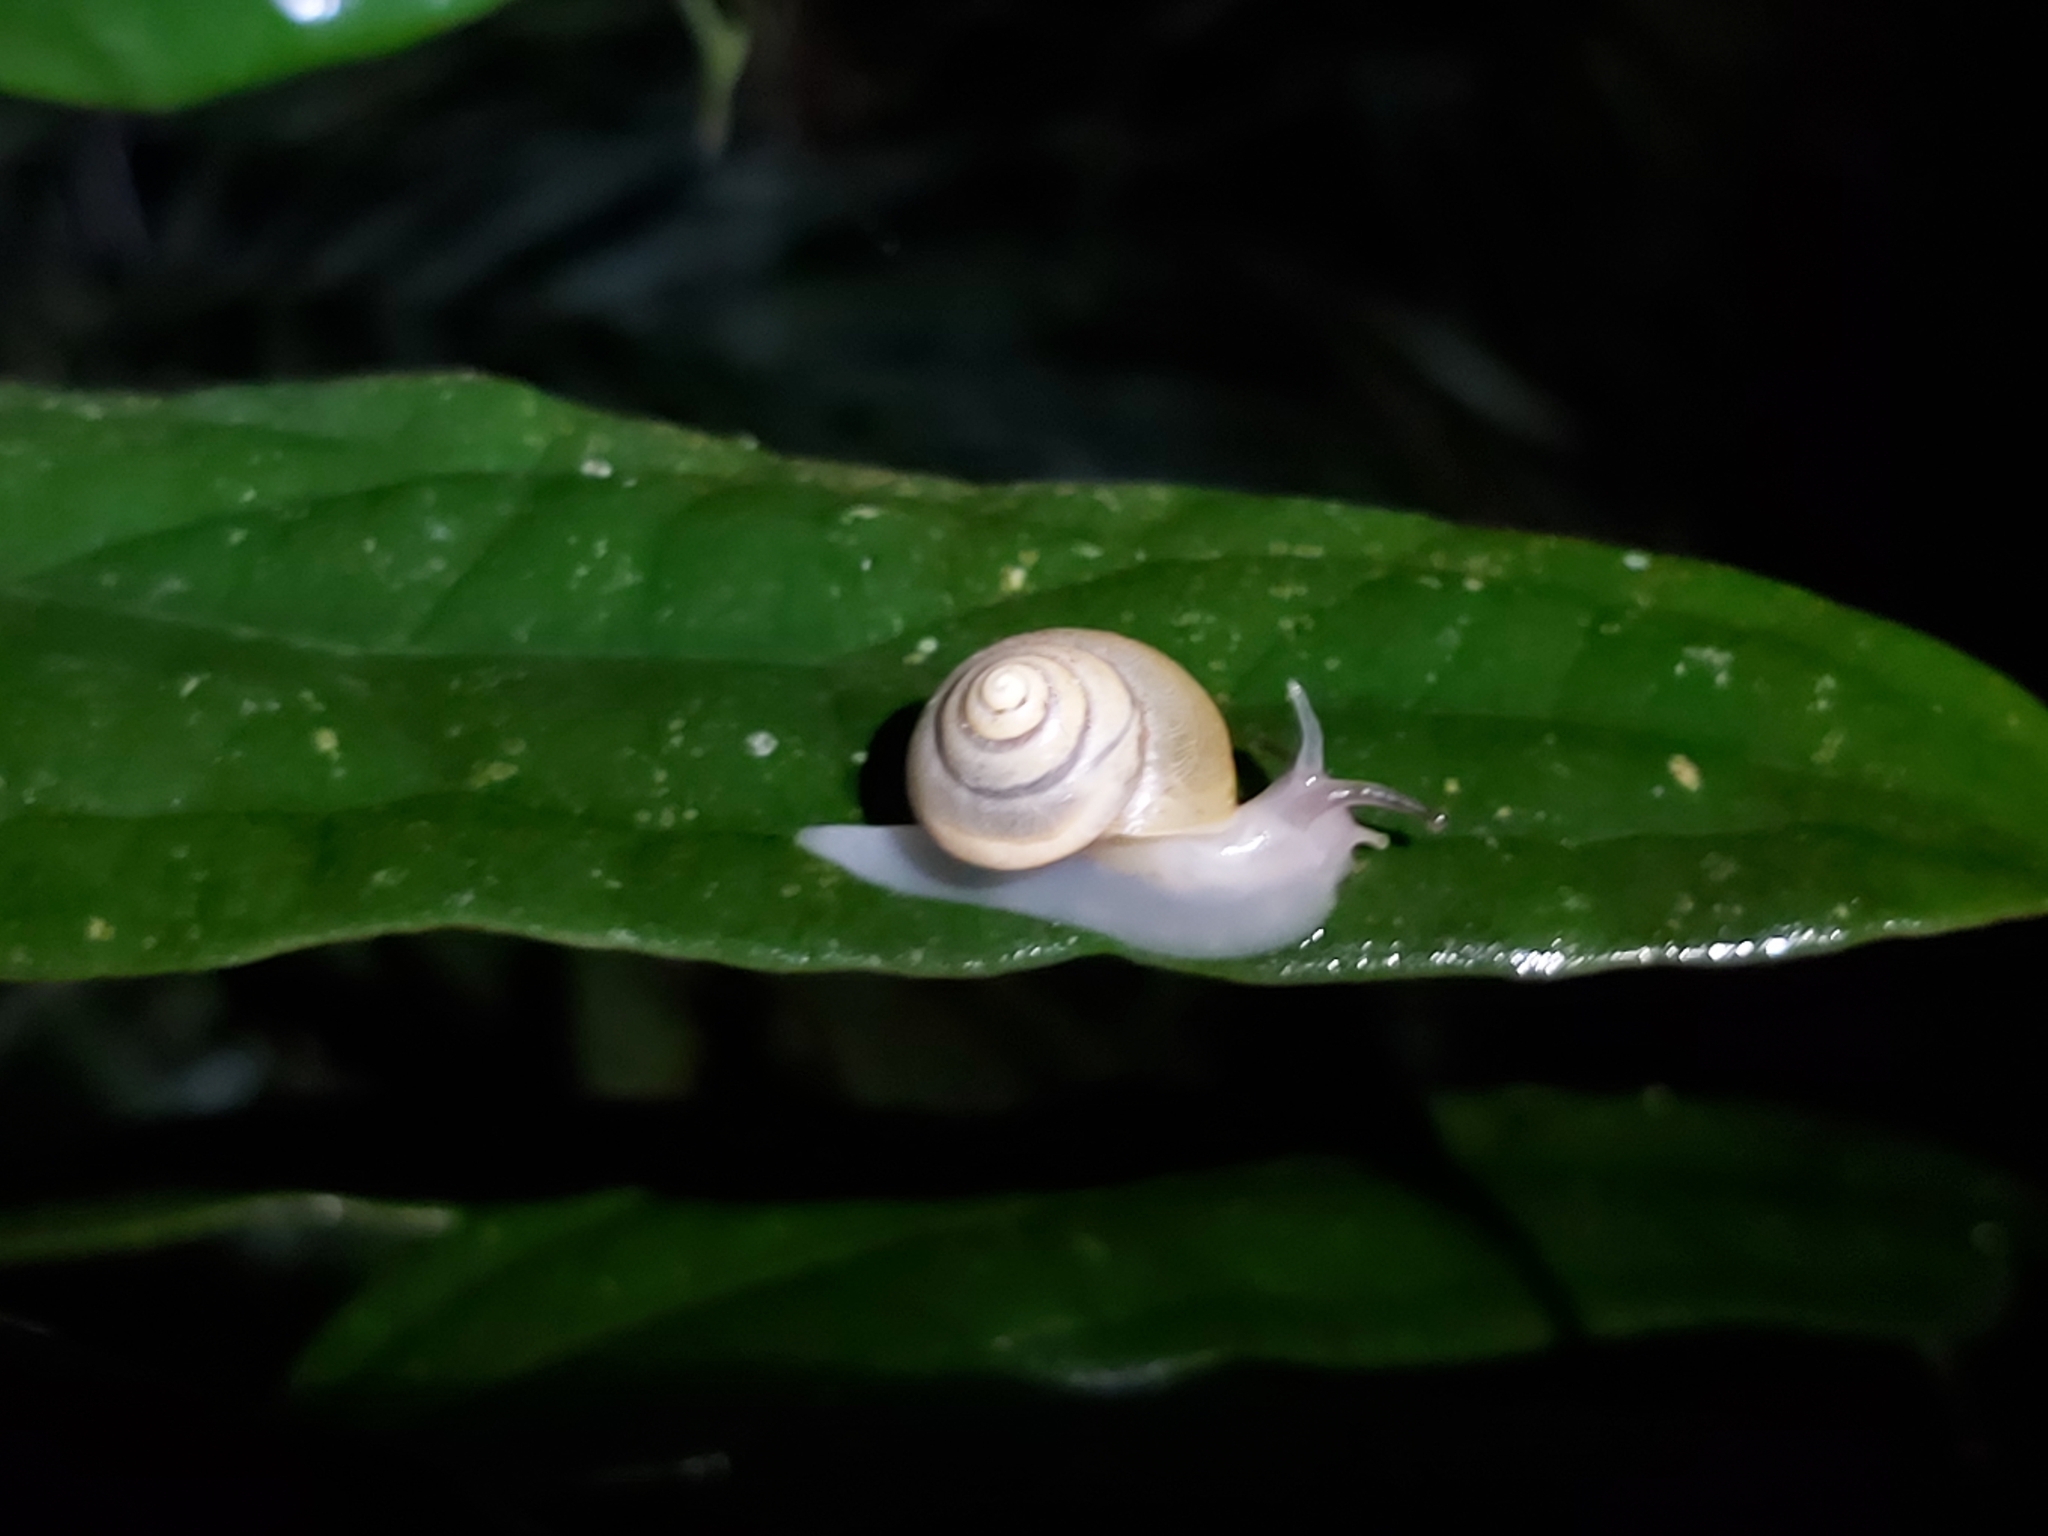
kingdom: Animalia
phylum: Mollusca
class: Gastropoda
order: Stylommatophora
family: Camaenidae
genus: Posorites
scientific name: Posorites conscendens
